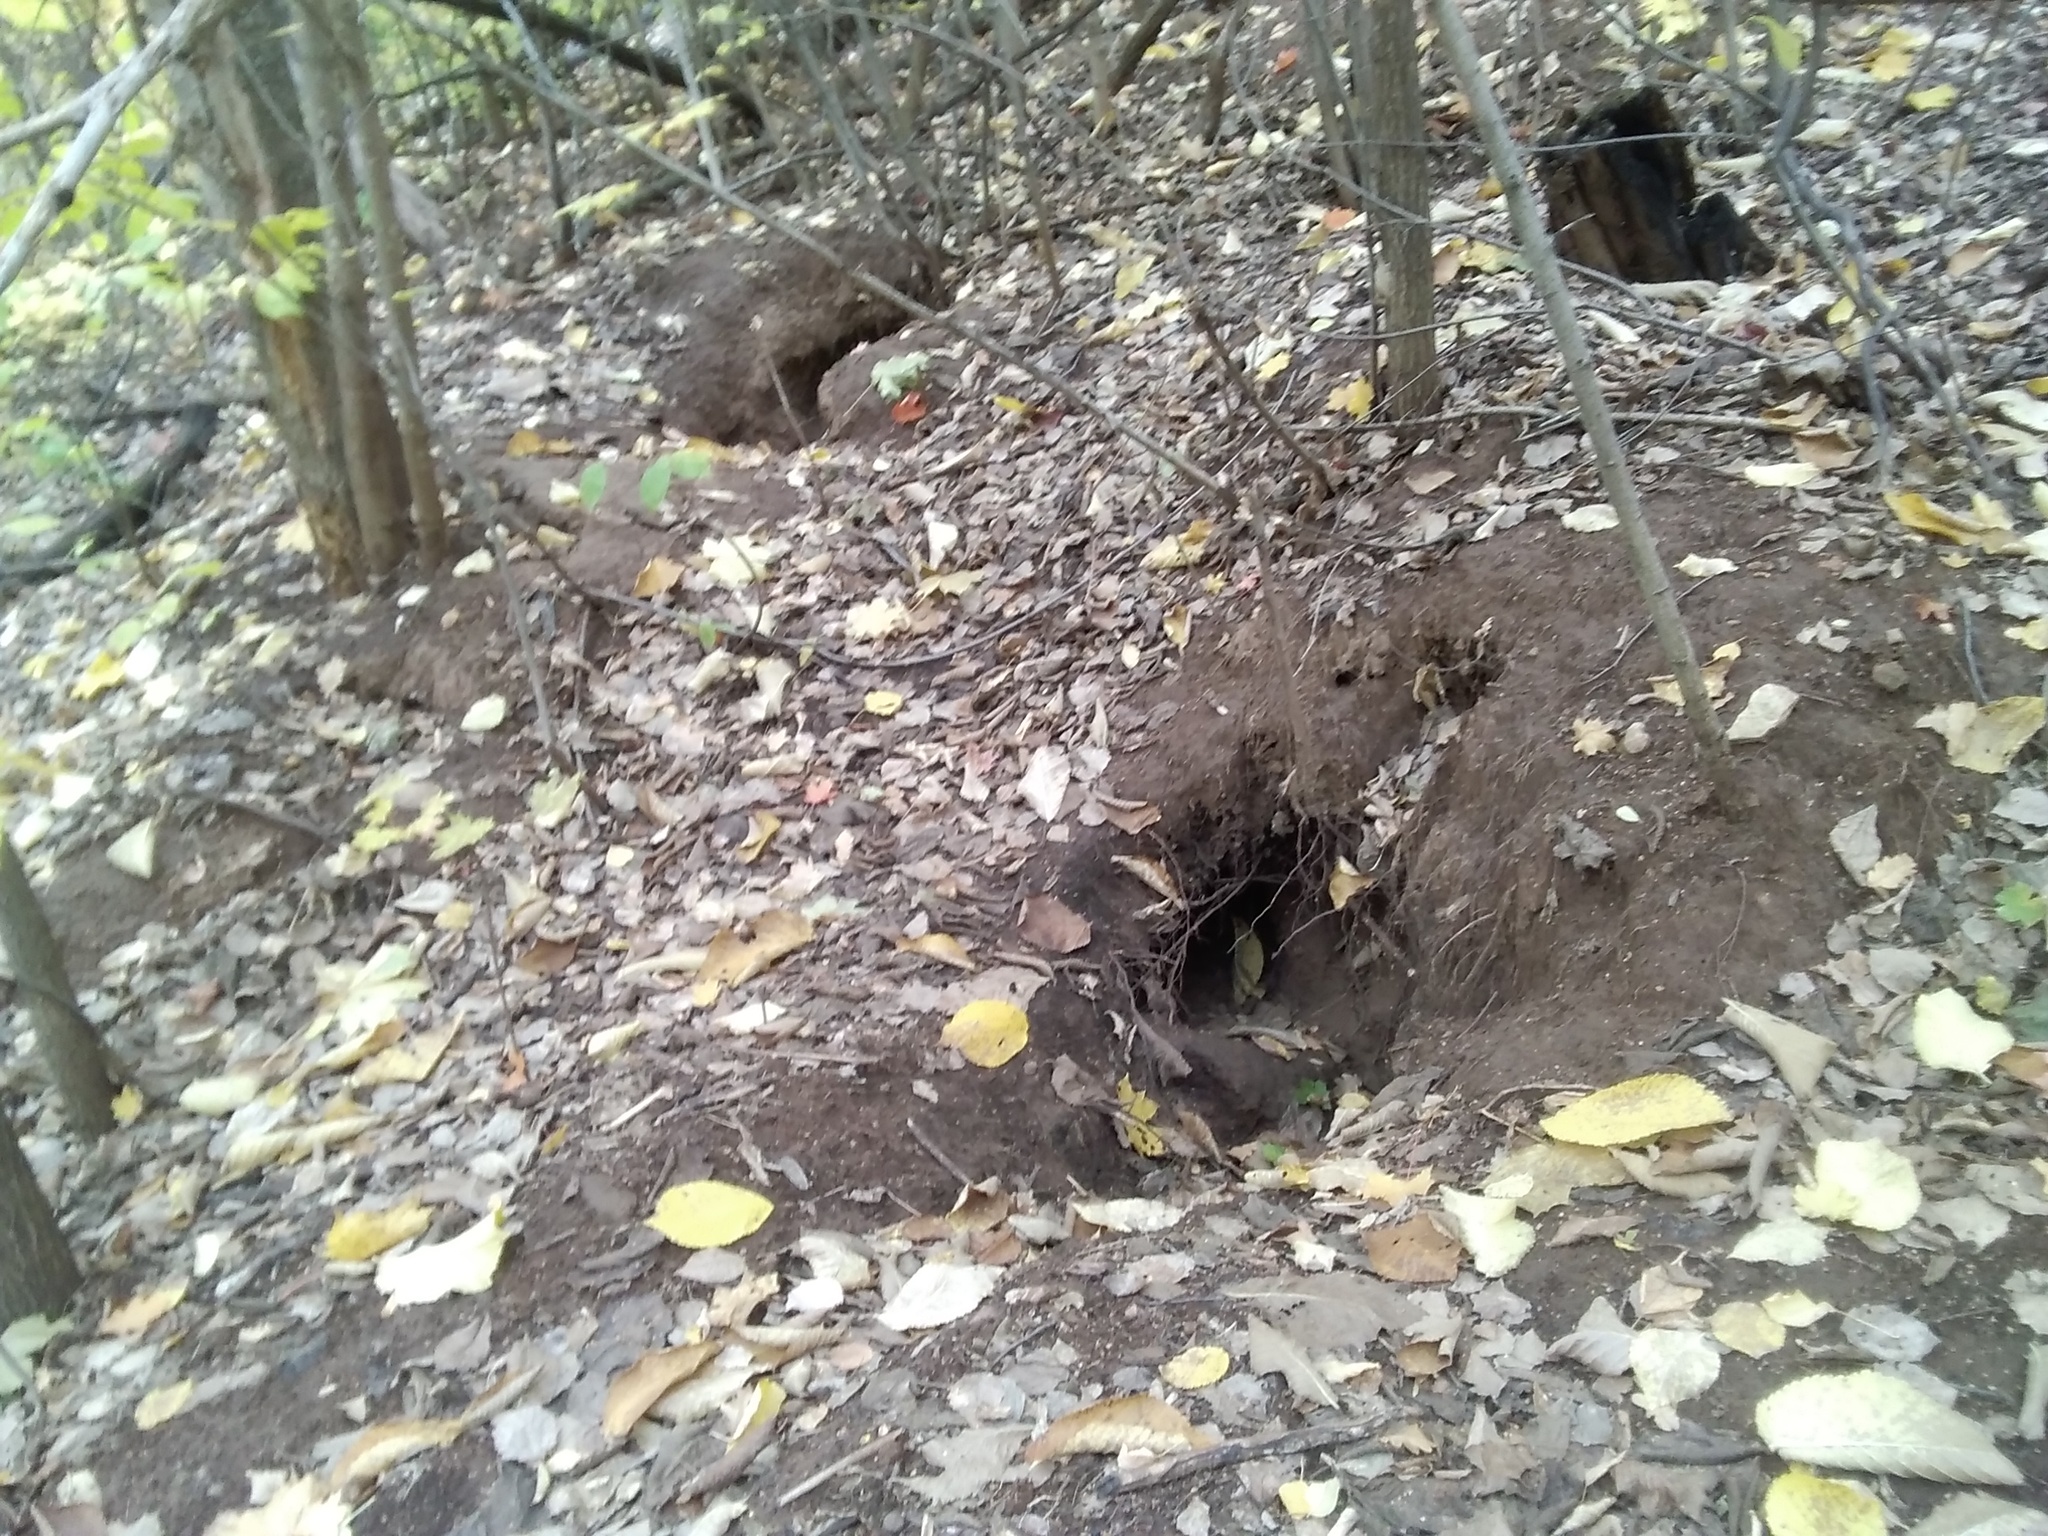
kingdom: Animalia
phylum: Chordata
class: Mammalia
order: Carnivora
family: Mustelidae
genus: Meles
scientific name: Meles leucurus
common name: Asian badger
